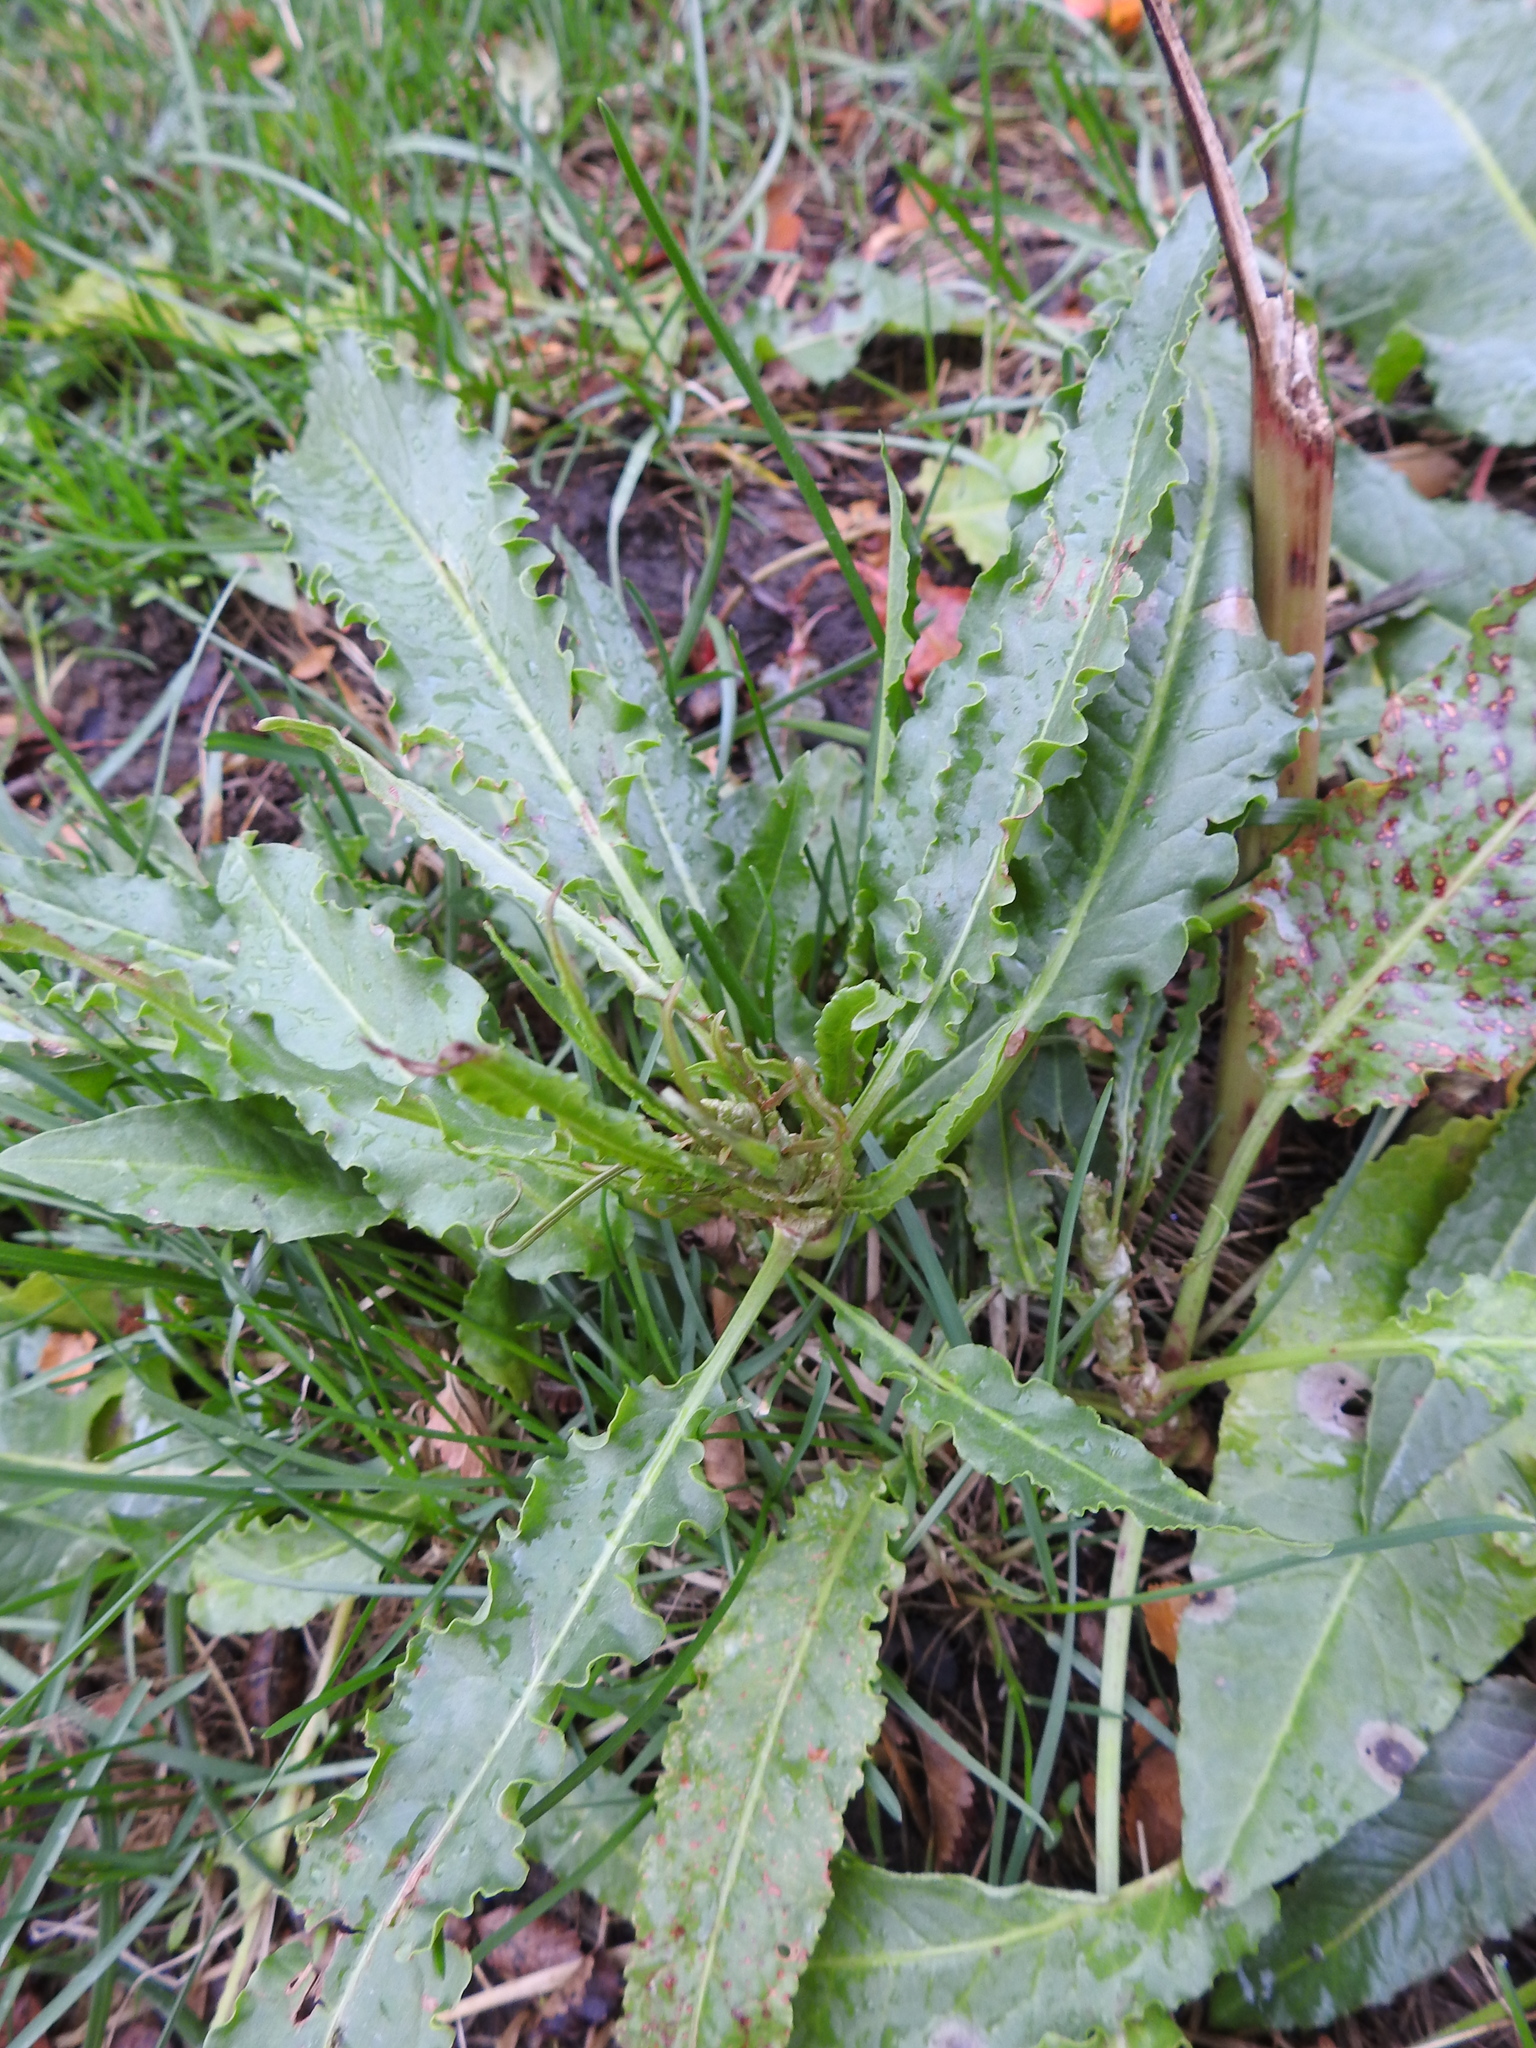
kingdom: Plantae
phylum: Tracheophyta
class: Magnoliopsida
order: Caryophyllales
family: Polygonaceae
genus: Rumex
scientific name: Rumex crispus
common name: Curled dock
